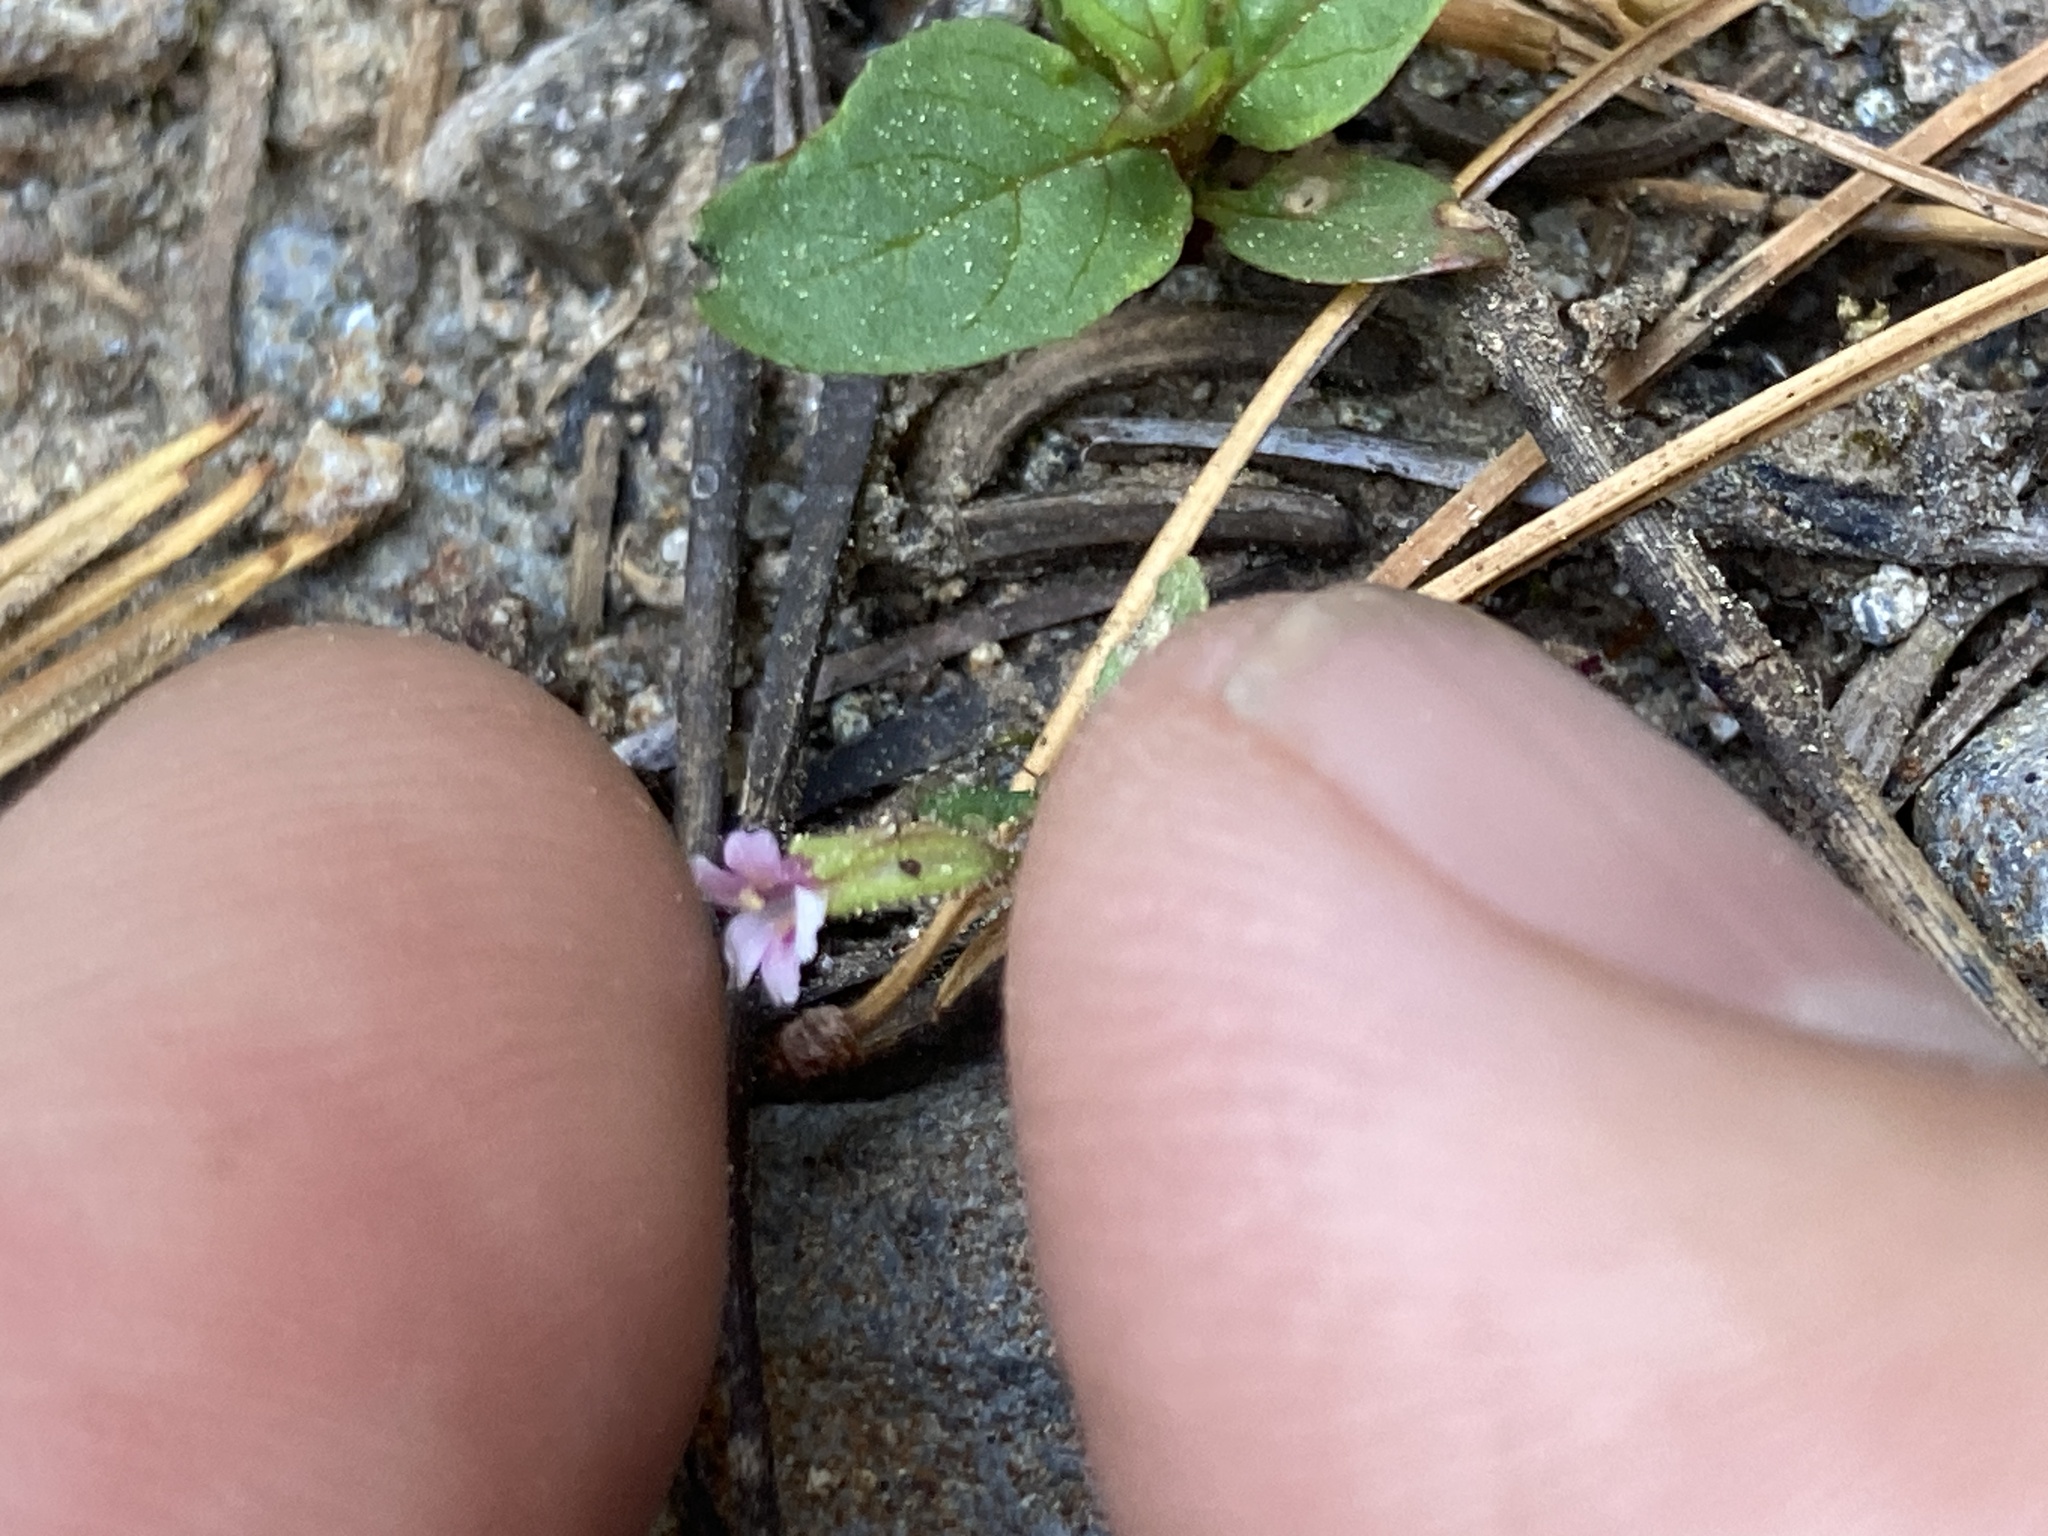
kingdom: Plantae
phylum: Tracheophyta
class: Magnoliopsida
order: Lamiales
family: Phrymaceae
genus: Erythranthe
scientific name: Erythranthe breweri
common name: Brewer's monkeyflower
